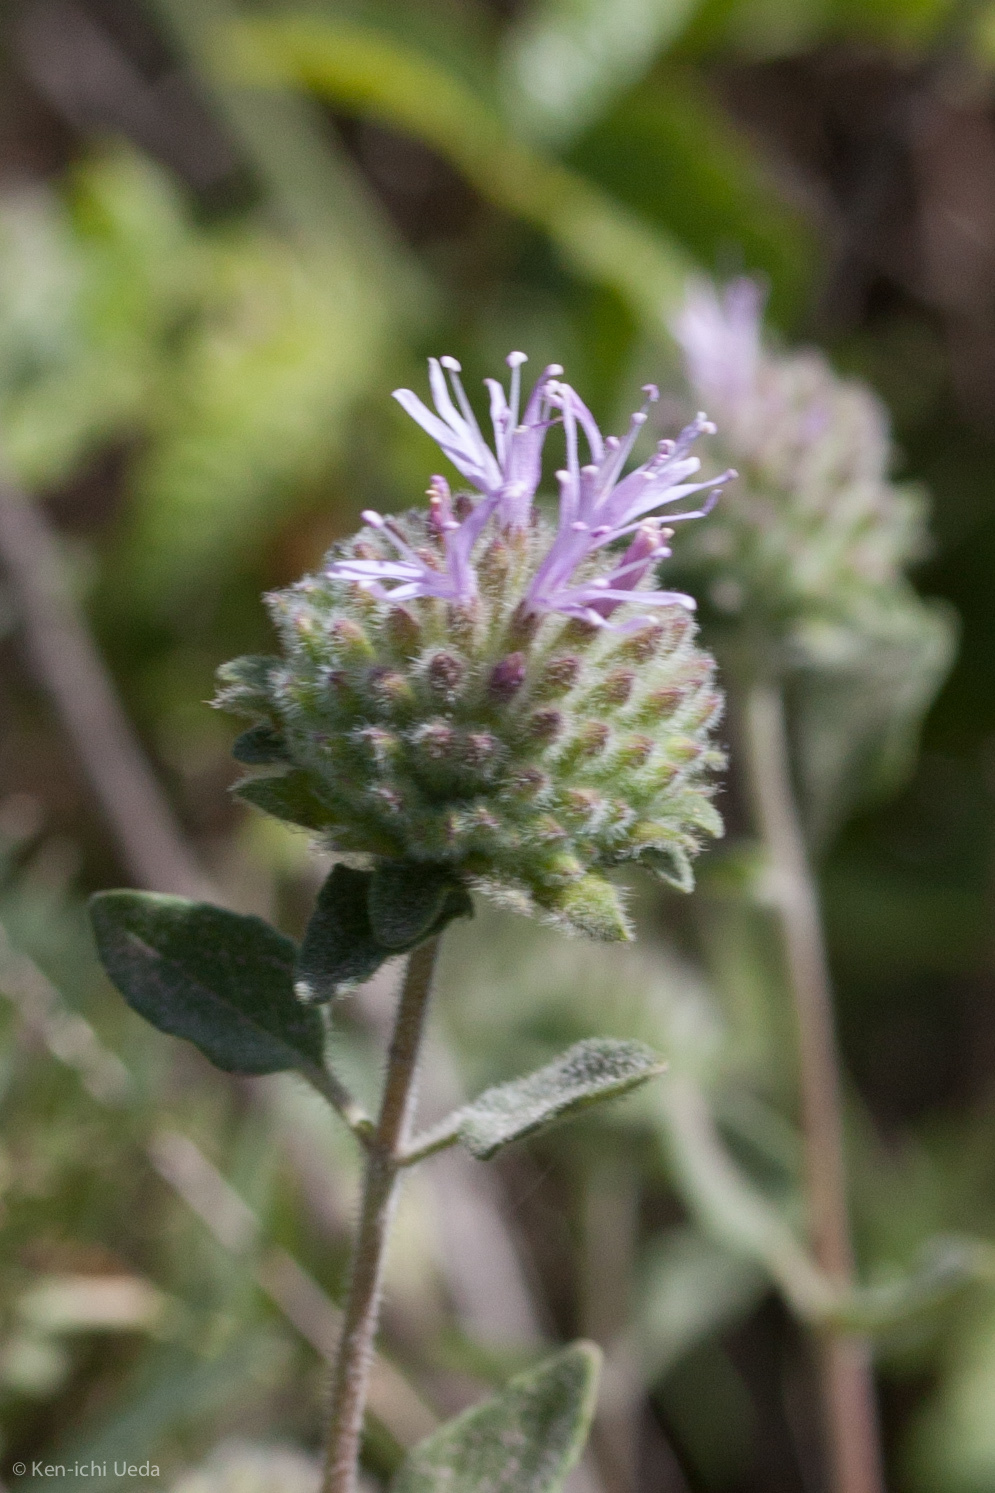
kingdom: Plantae
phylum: Tracheophyta
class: Magnoliopsida
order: Lamiales
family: Lamiaceae
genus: Monardella
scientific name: Monardella odoratissima
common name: Pacific monardella
